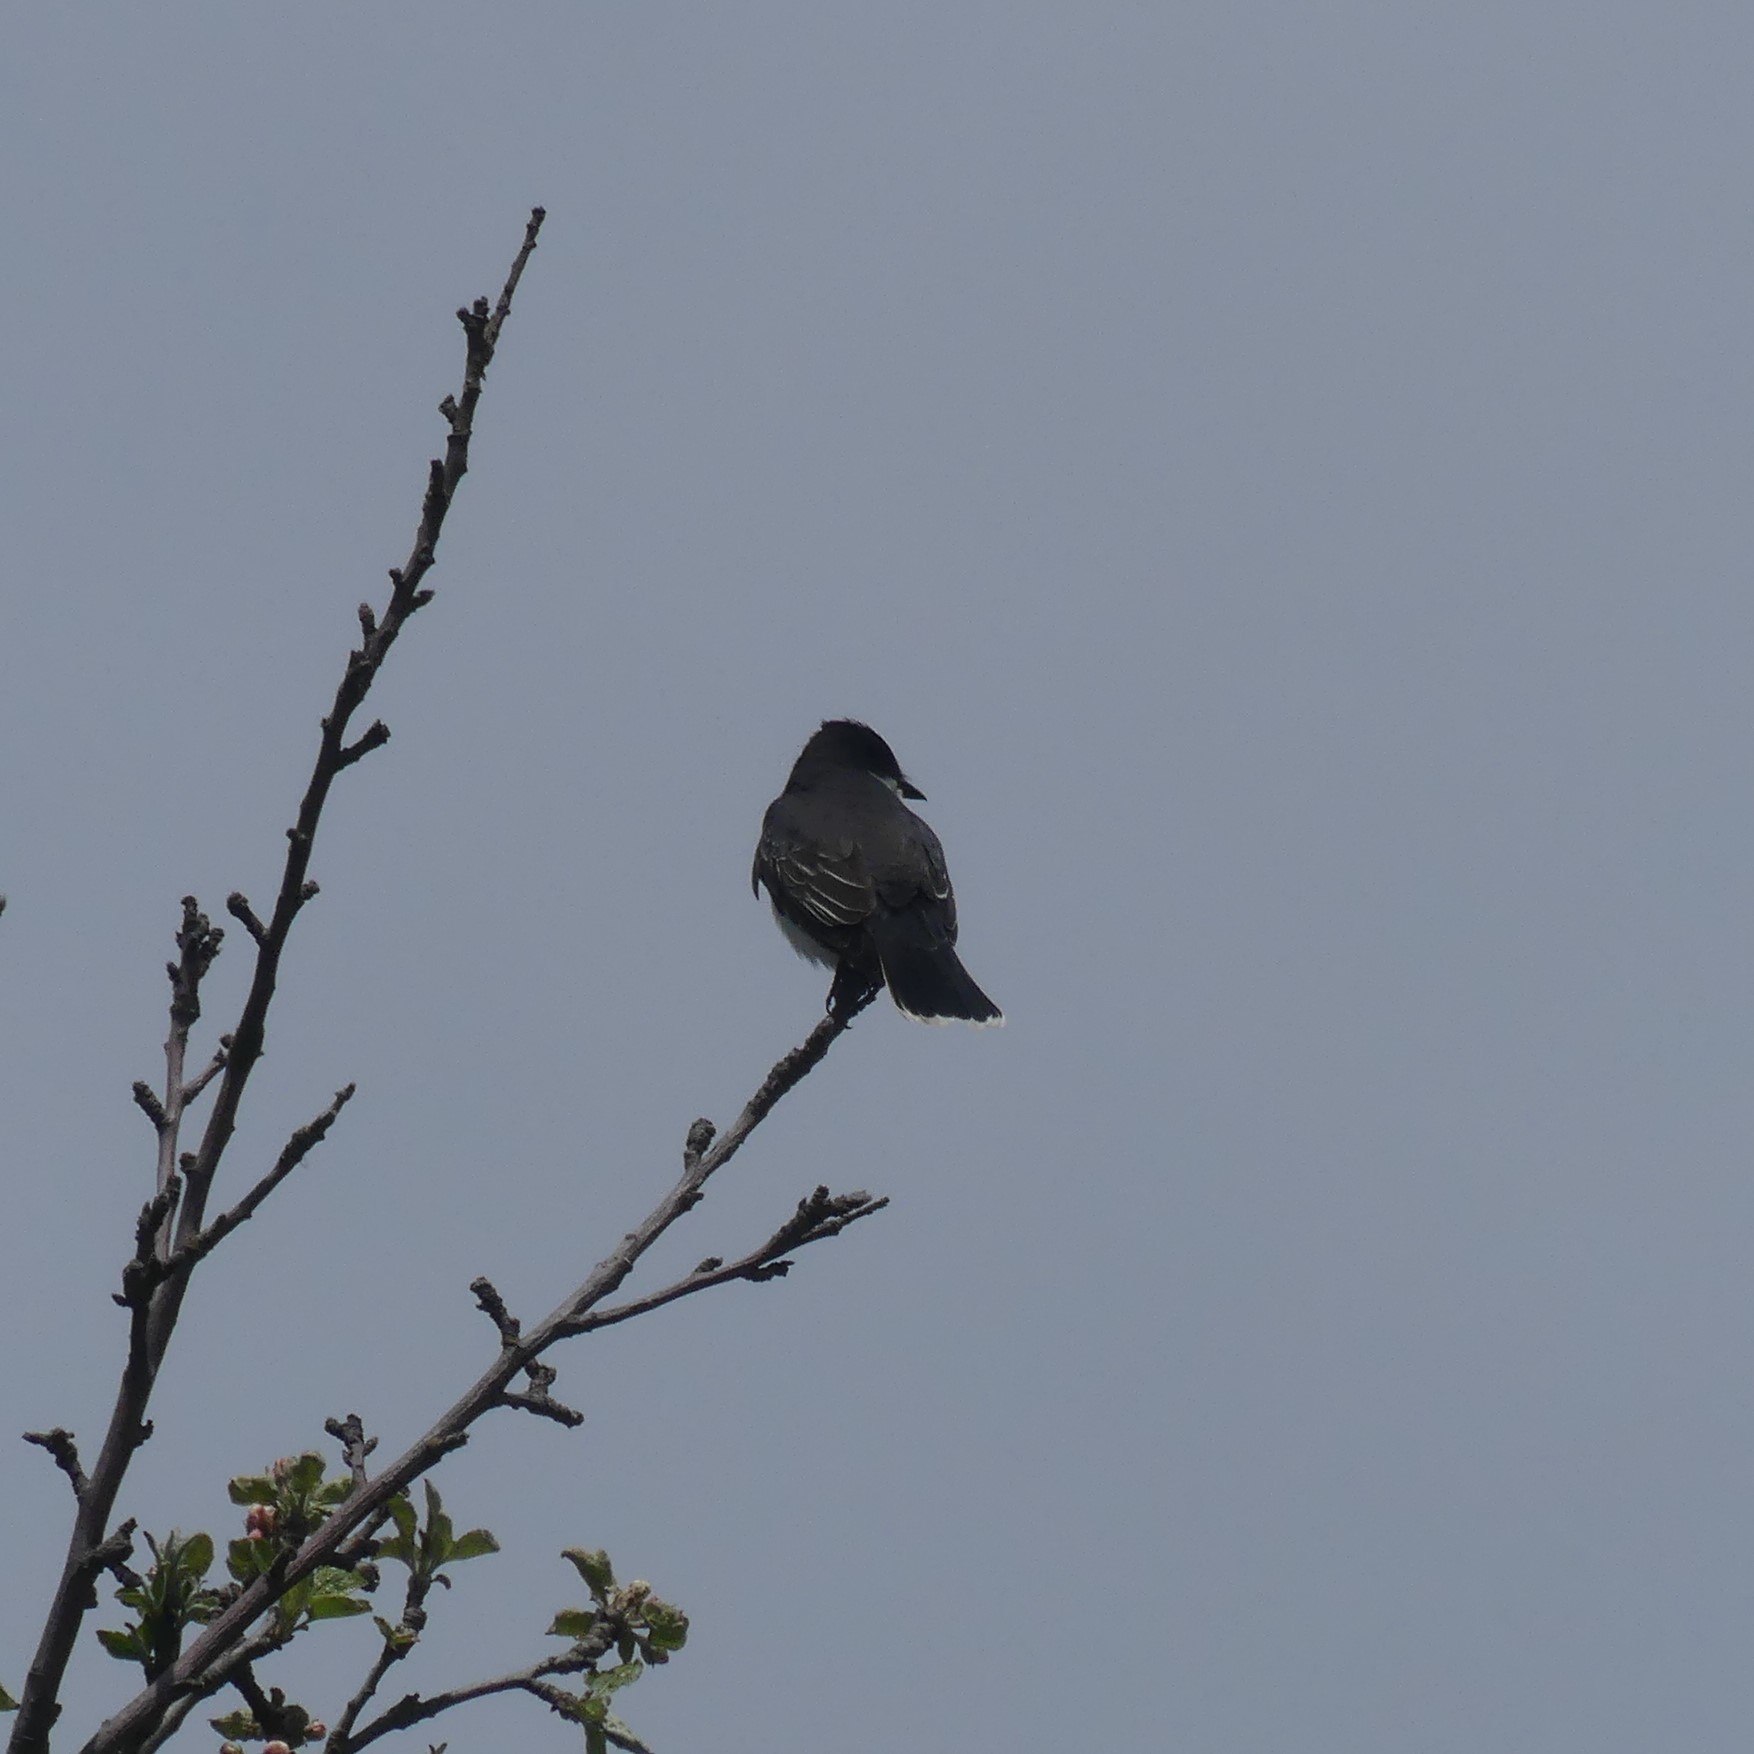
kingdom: Animalia
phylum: Chordata
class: Aves
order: Passeriformes
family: Tyrannidae
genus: Tyrannus
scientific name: Tyrannus tyrannus
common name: Eastern kingbird
